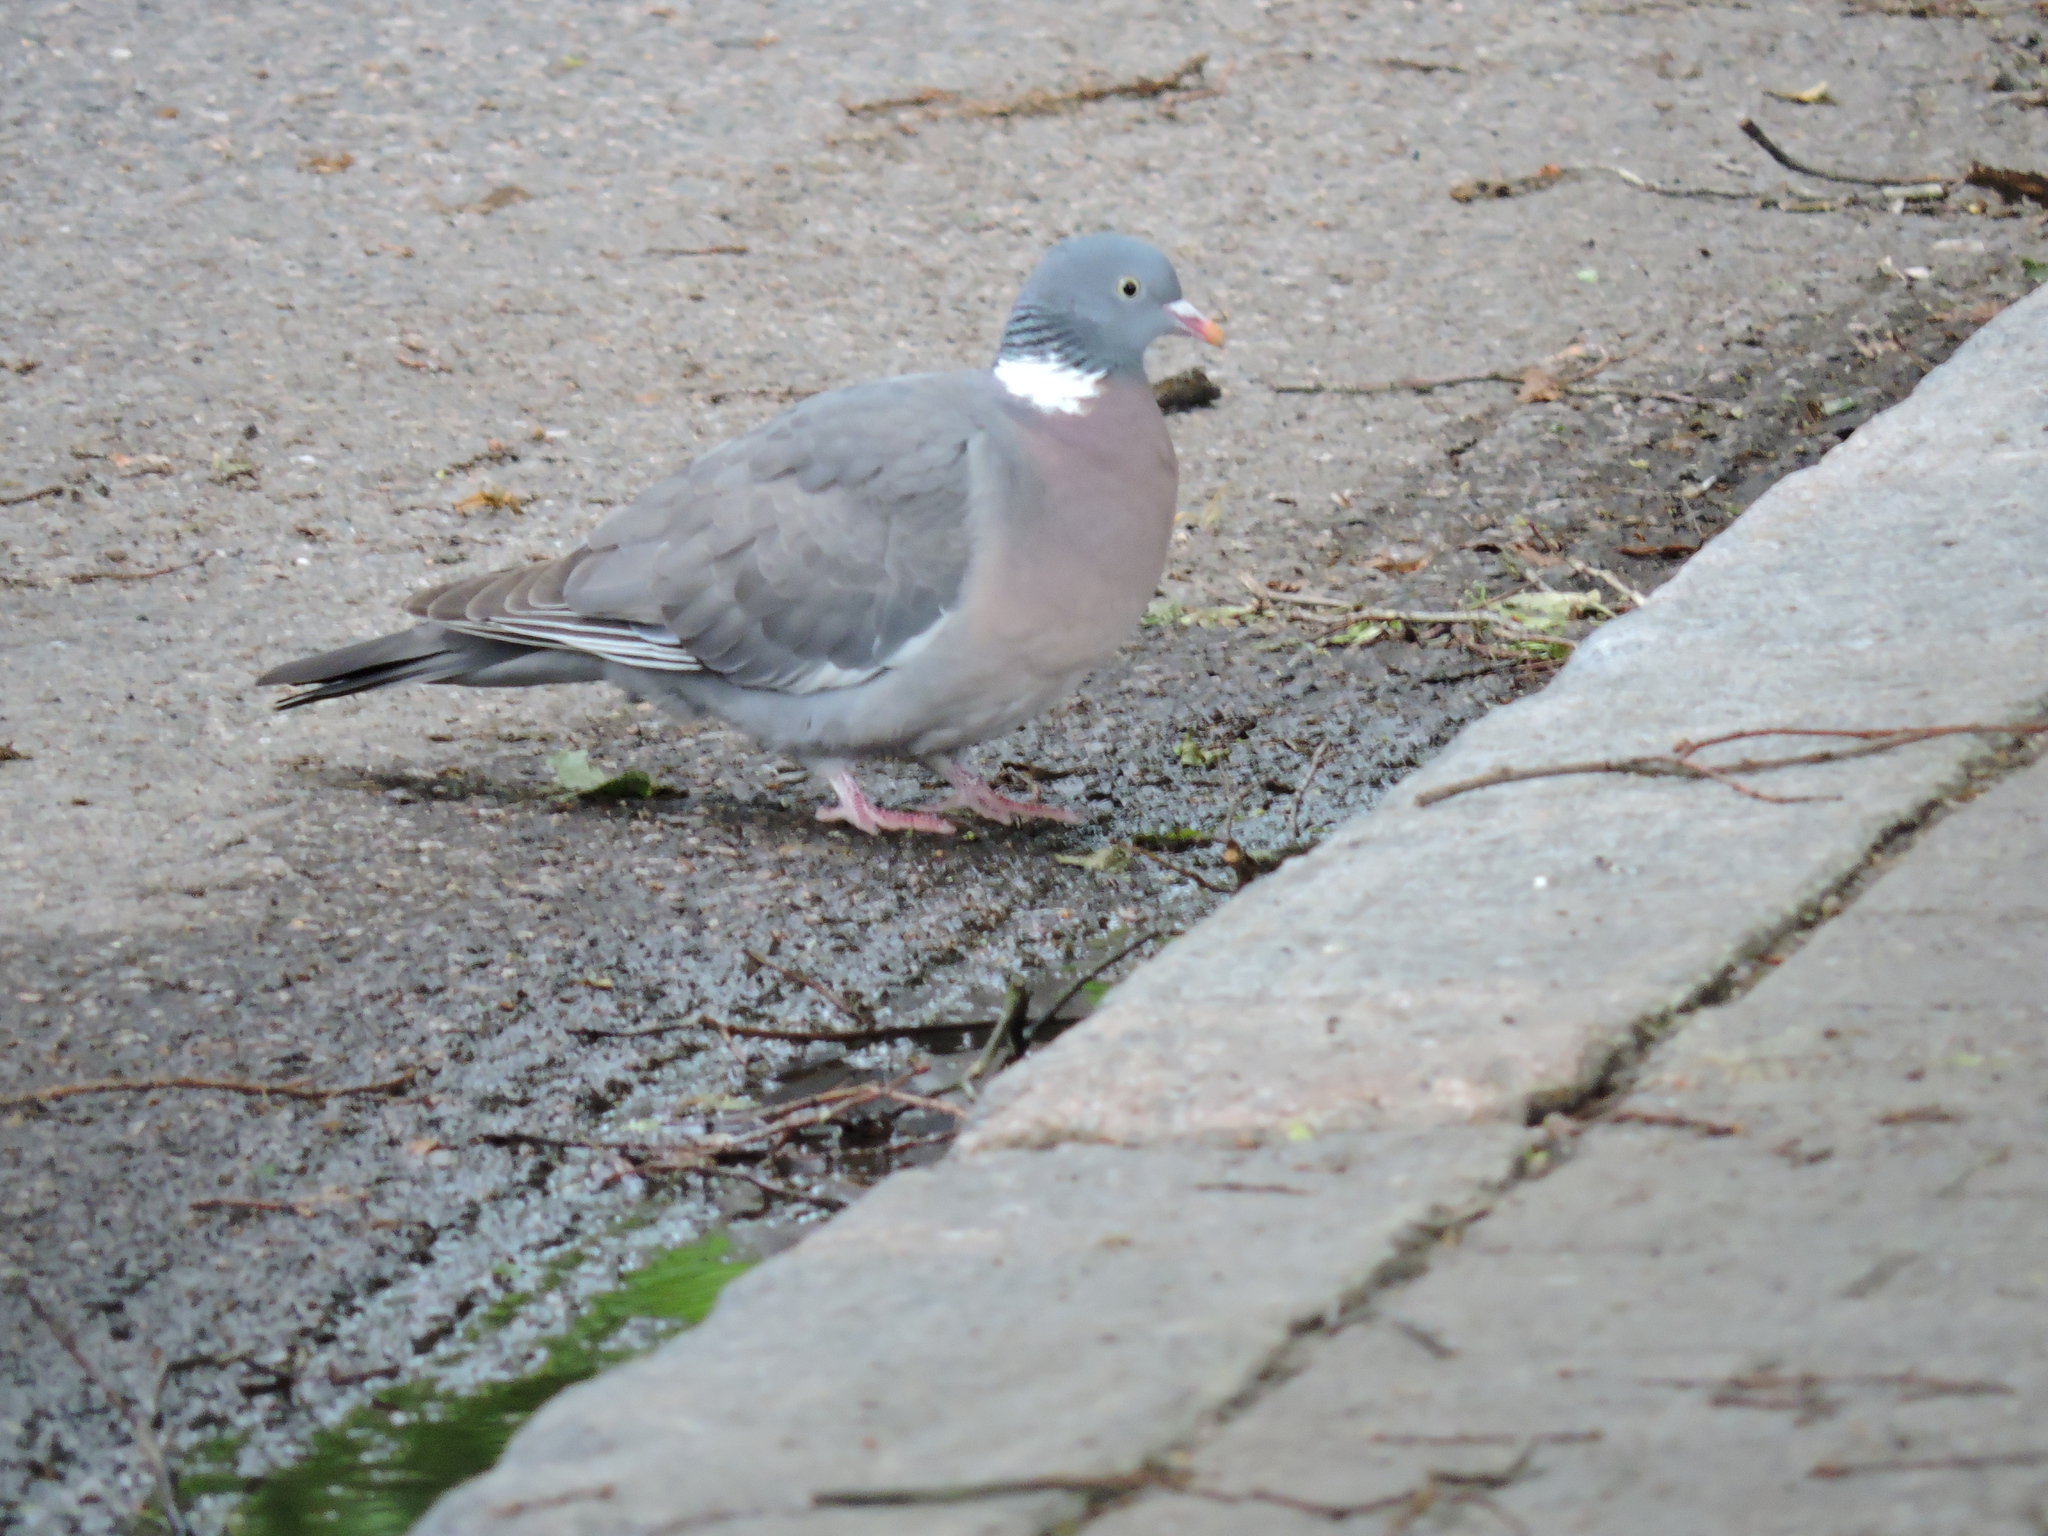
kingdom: Animalia
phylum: Chordata
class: Aves
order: Columbiformes
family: Columbidae
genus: Columba
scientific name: Columba palumbus
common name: Common wood pigeon
